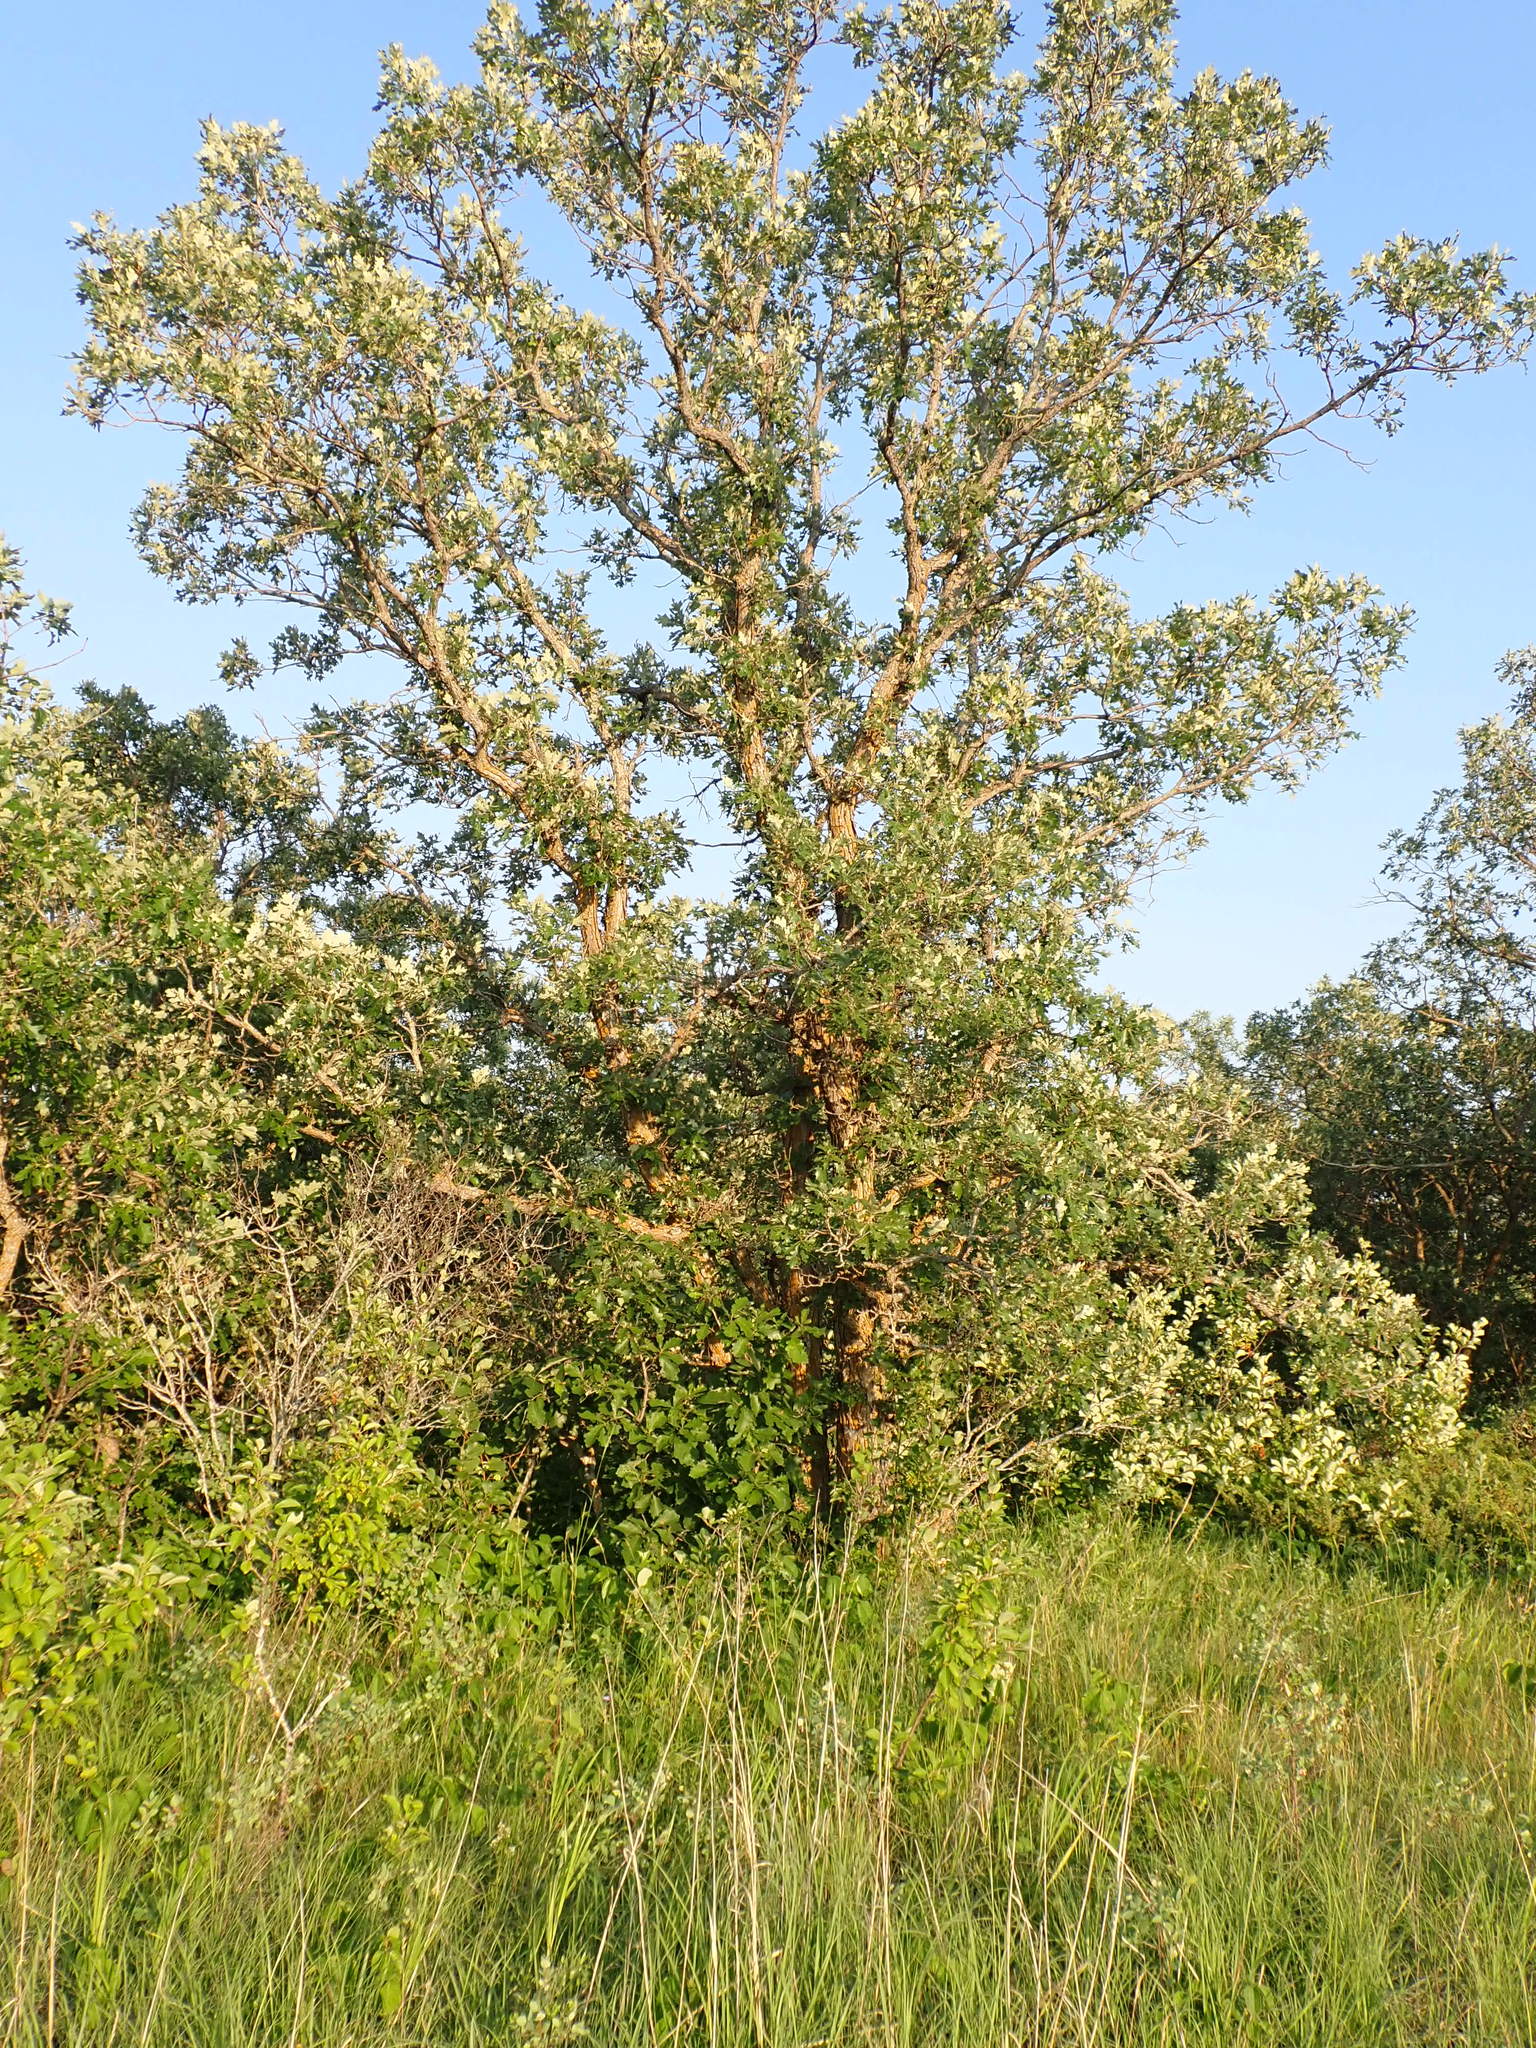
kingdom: Plantae
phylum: Tracheophyta
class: Magnoliopsida
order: Fagales
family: Fagaceae
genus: Quercus
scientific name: Quercus macrocarpa
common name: Bur oak
